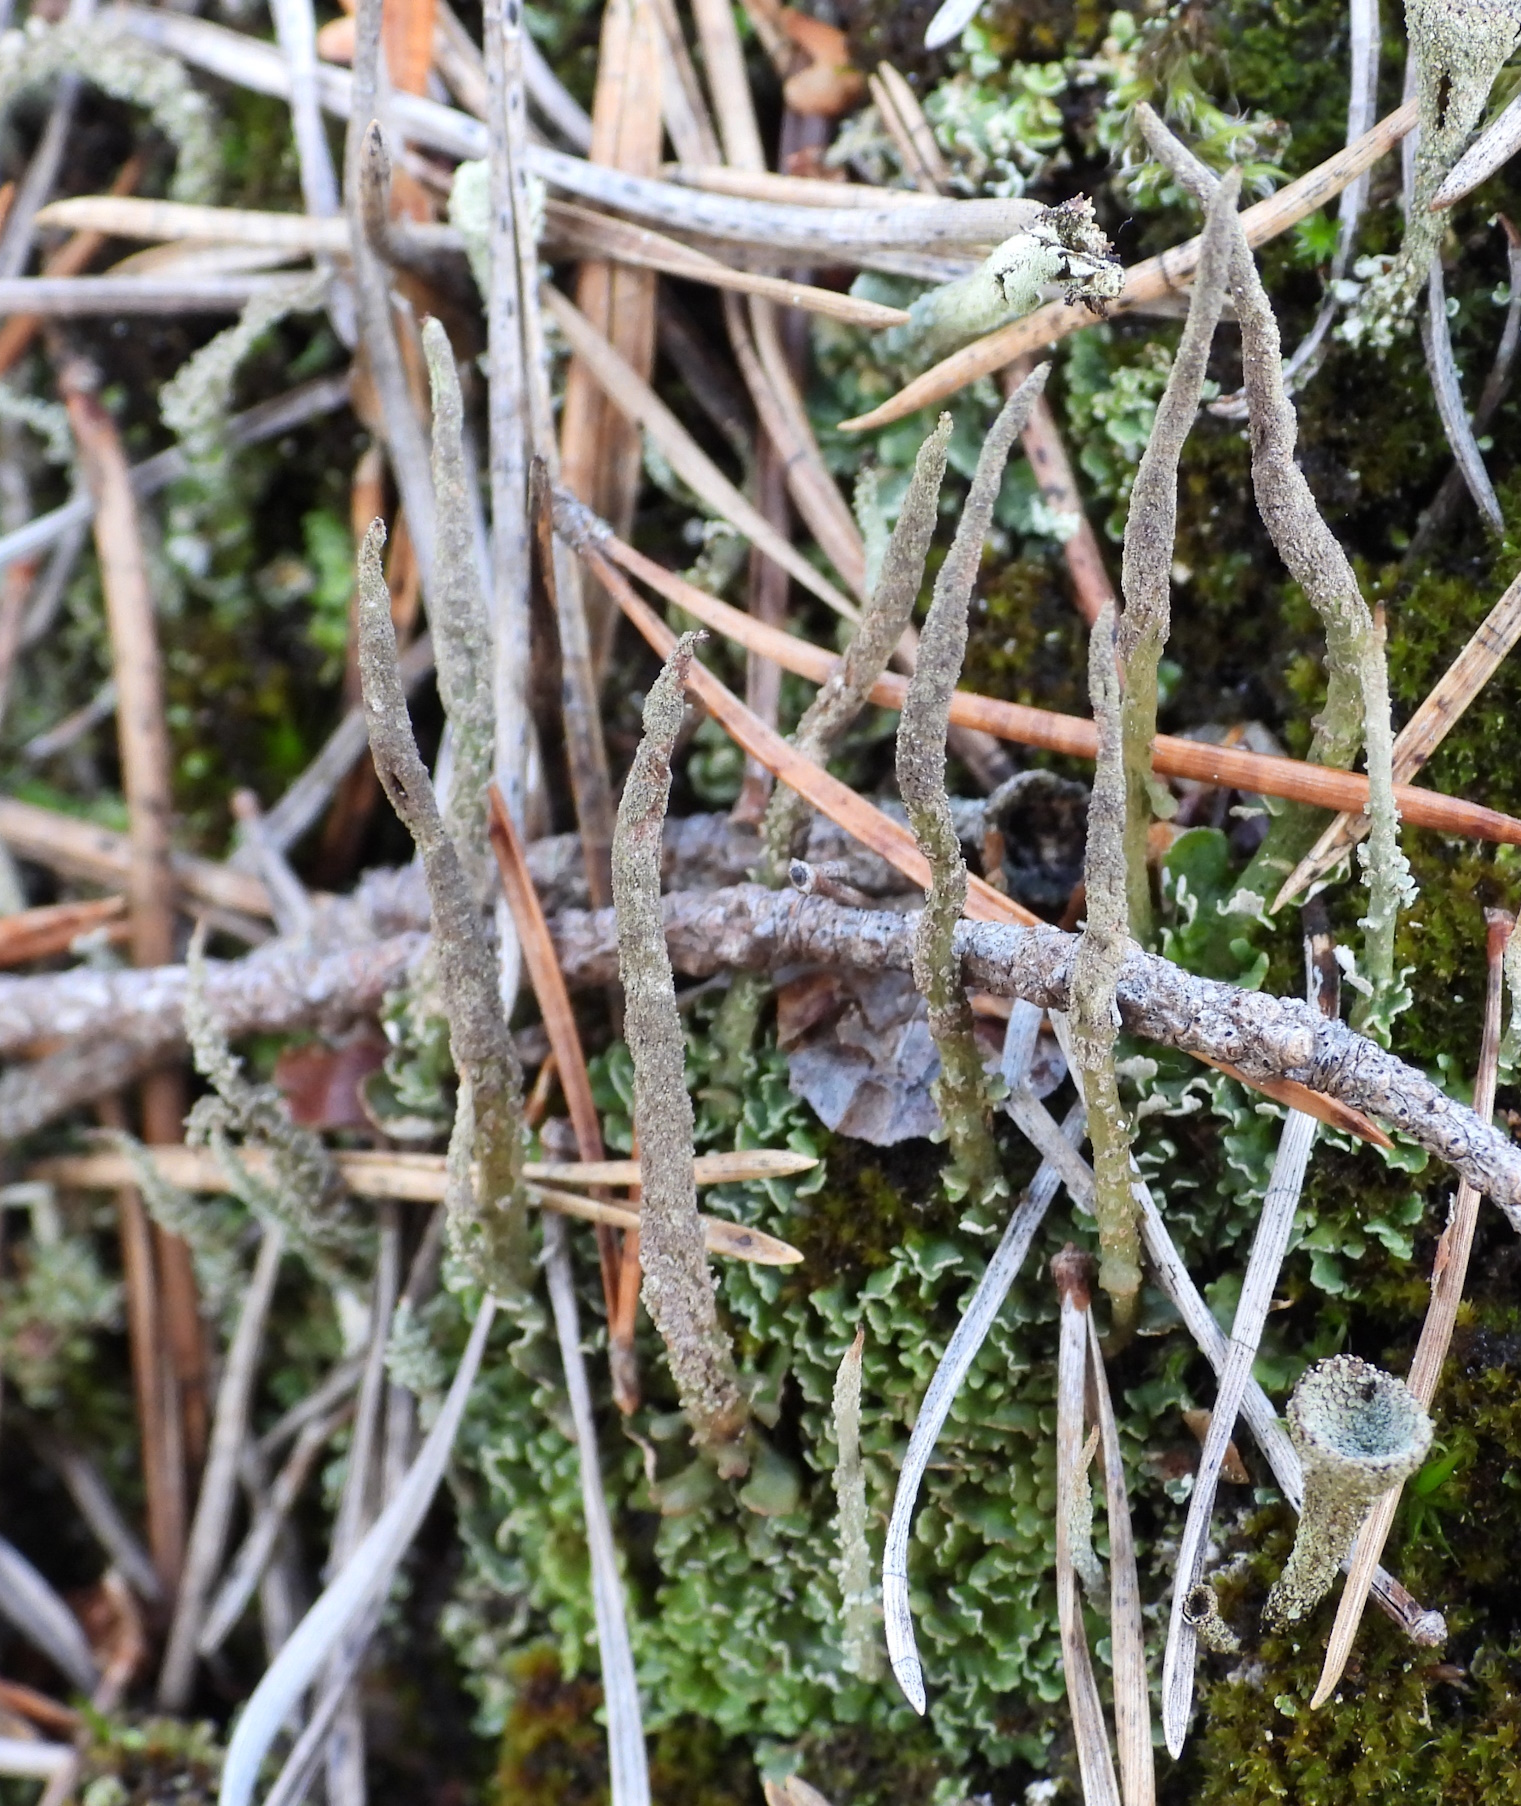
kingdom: Fungi
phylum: Ascomycota
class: Lecanoromycetes
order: Lecanorales
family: Cladoniaceae
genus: Cladonia
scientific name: Cladonia cornuta
